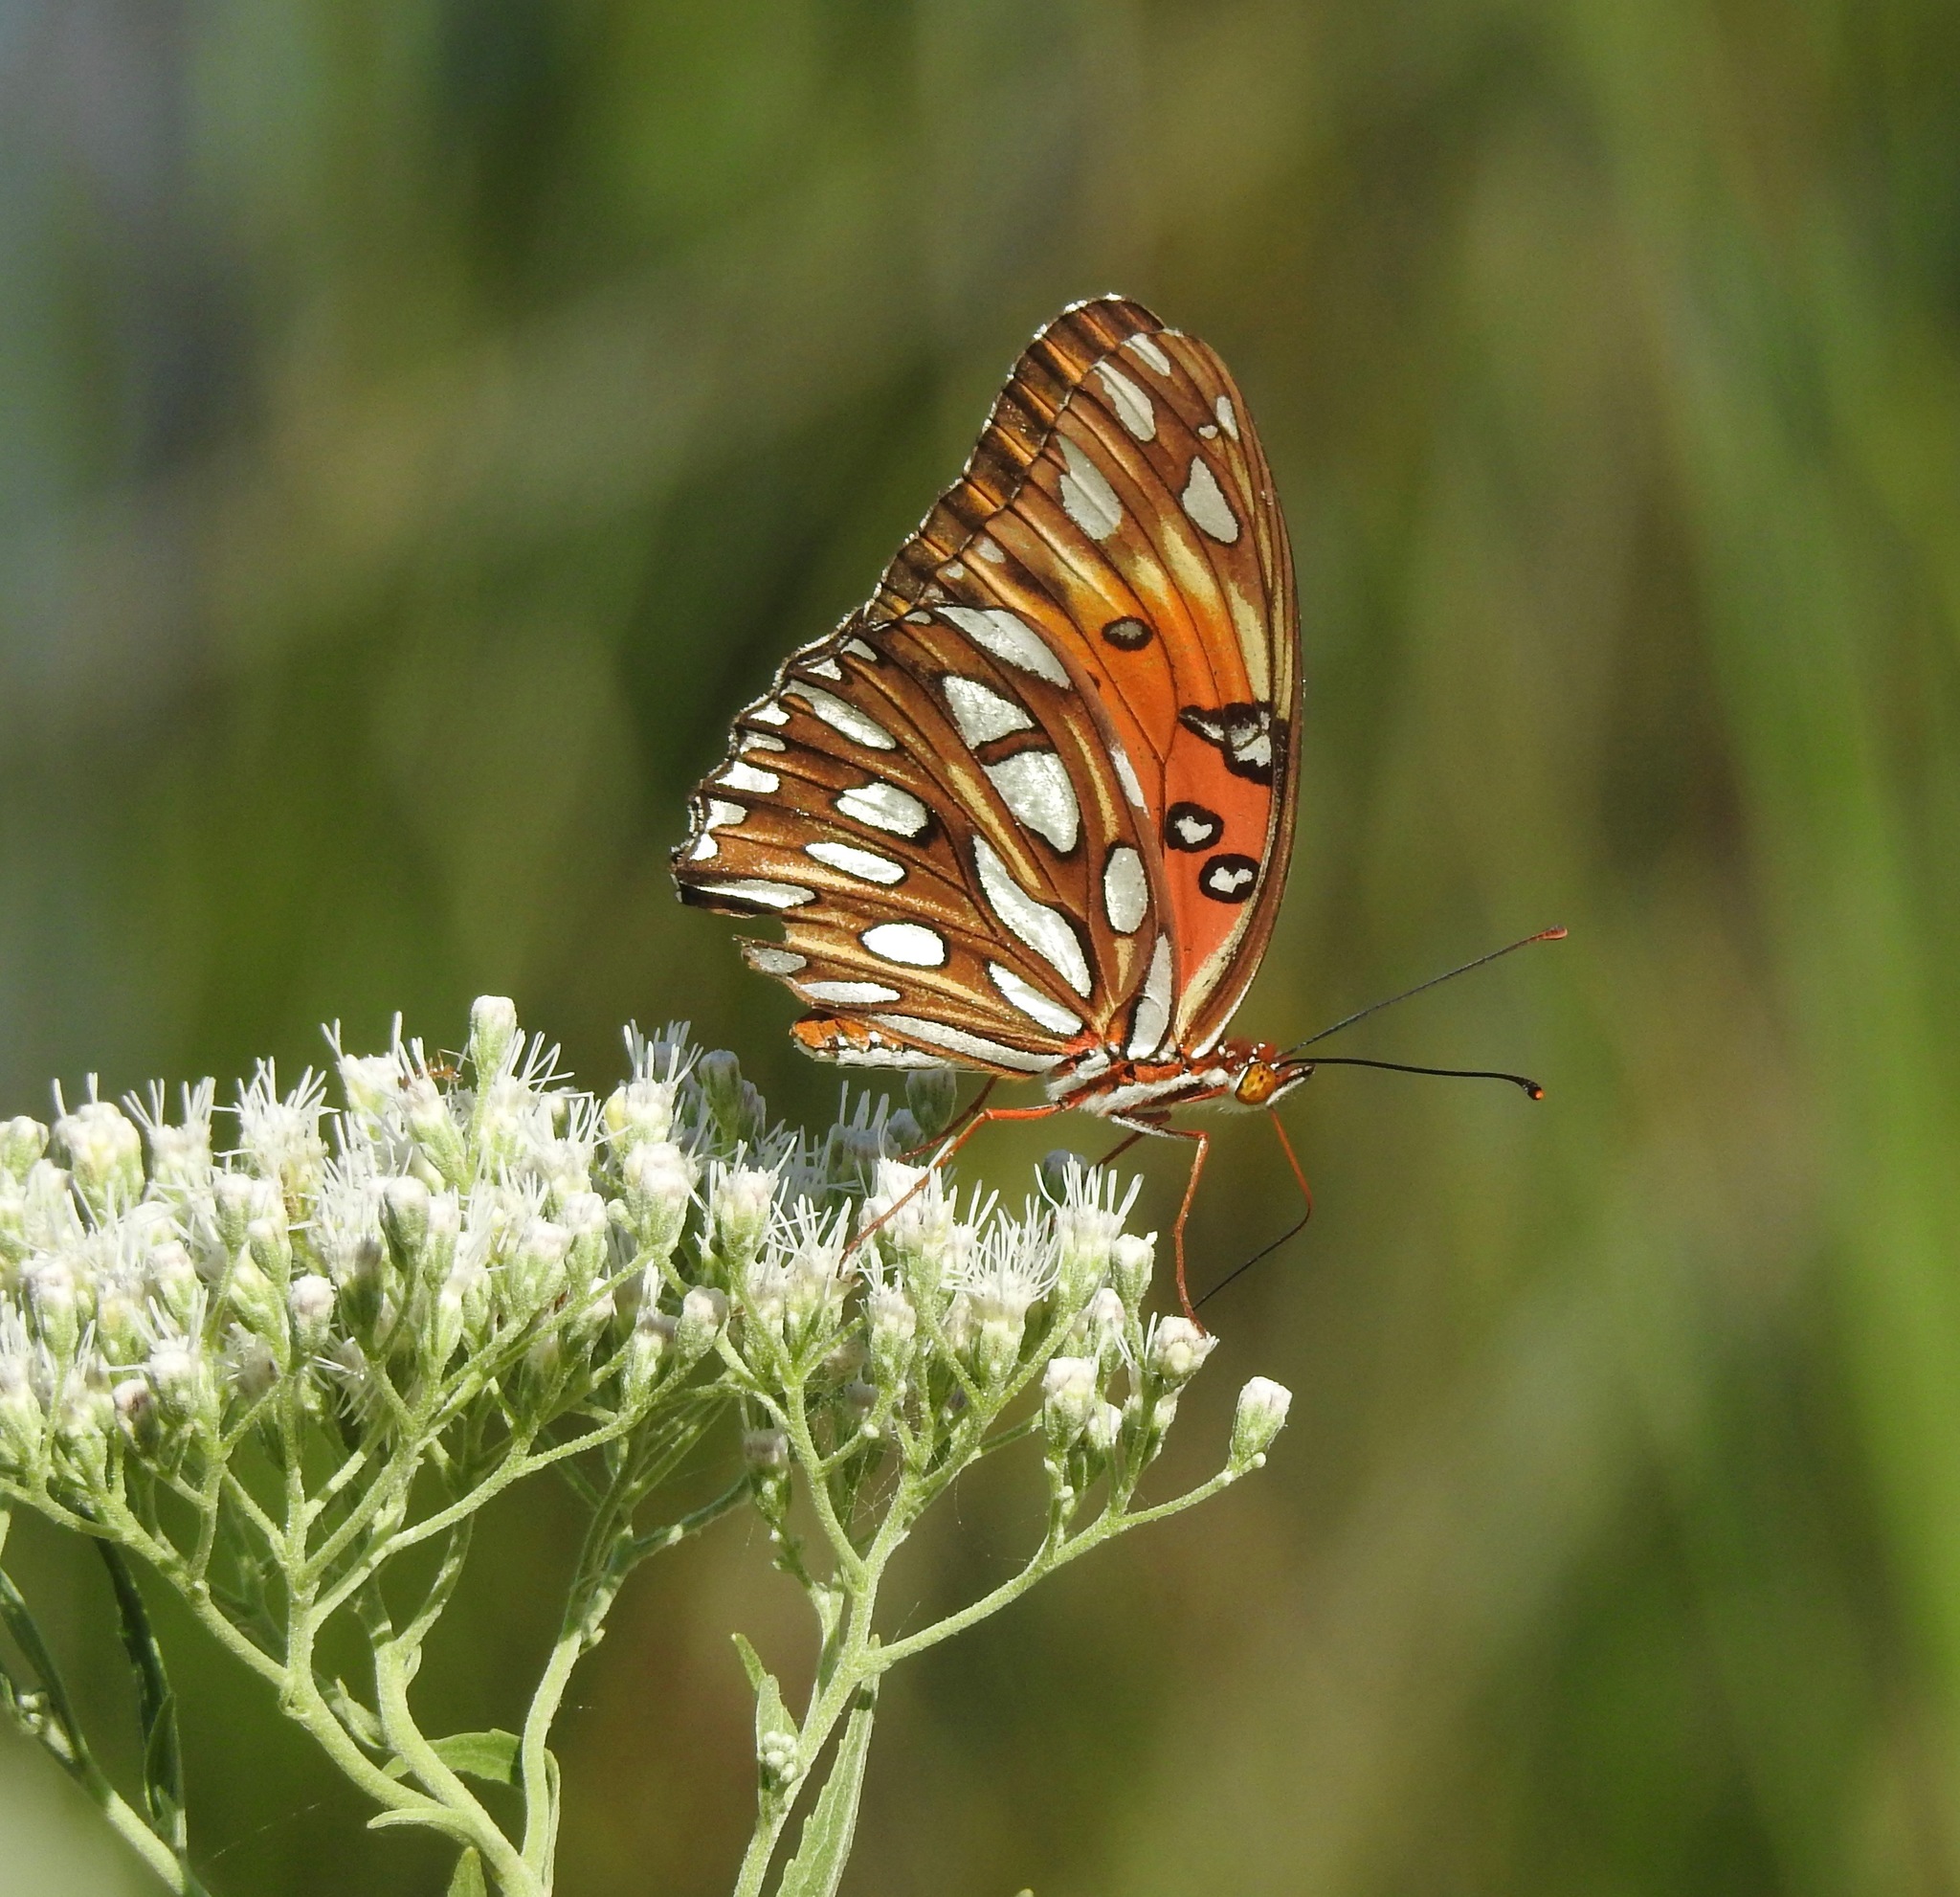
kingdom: Animalia
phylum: Arthropoda
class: Insecta
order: Lepidoptera
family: Nymphalidae
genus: Dione
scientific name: Dione vanillae
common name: Gulf fritillary
